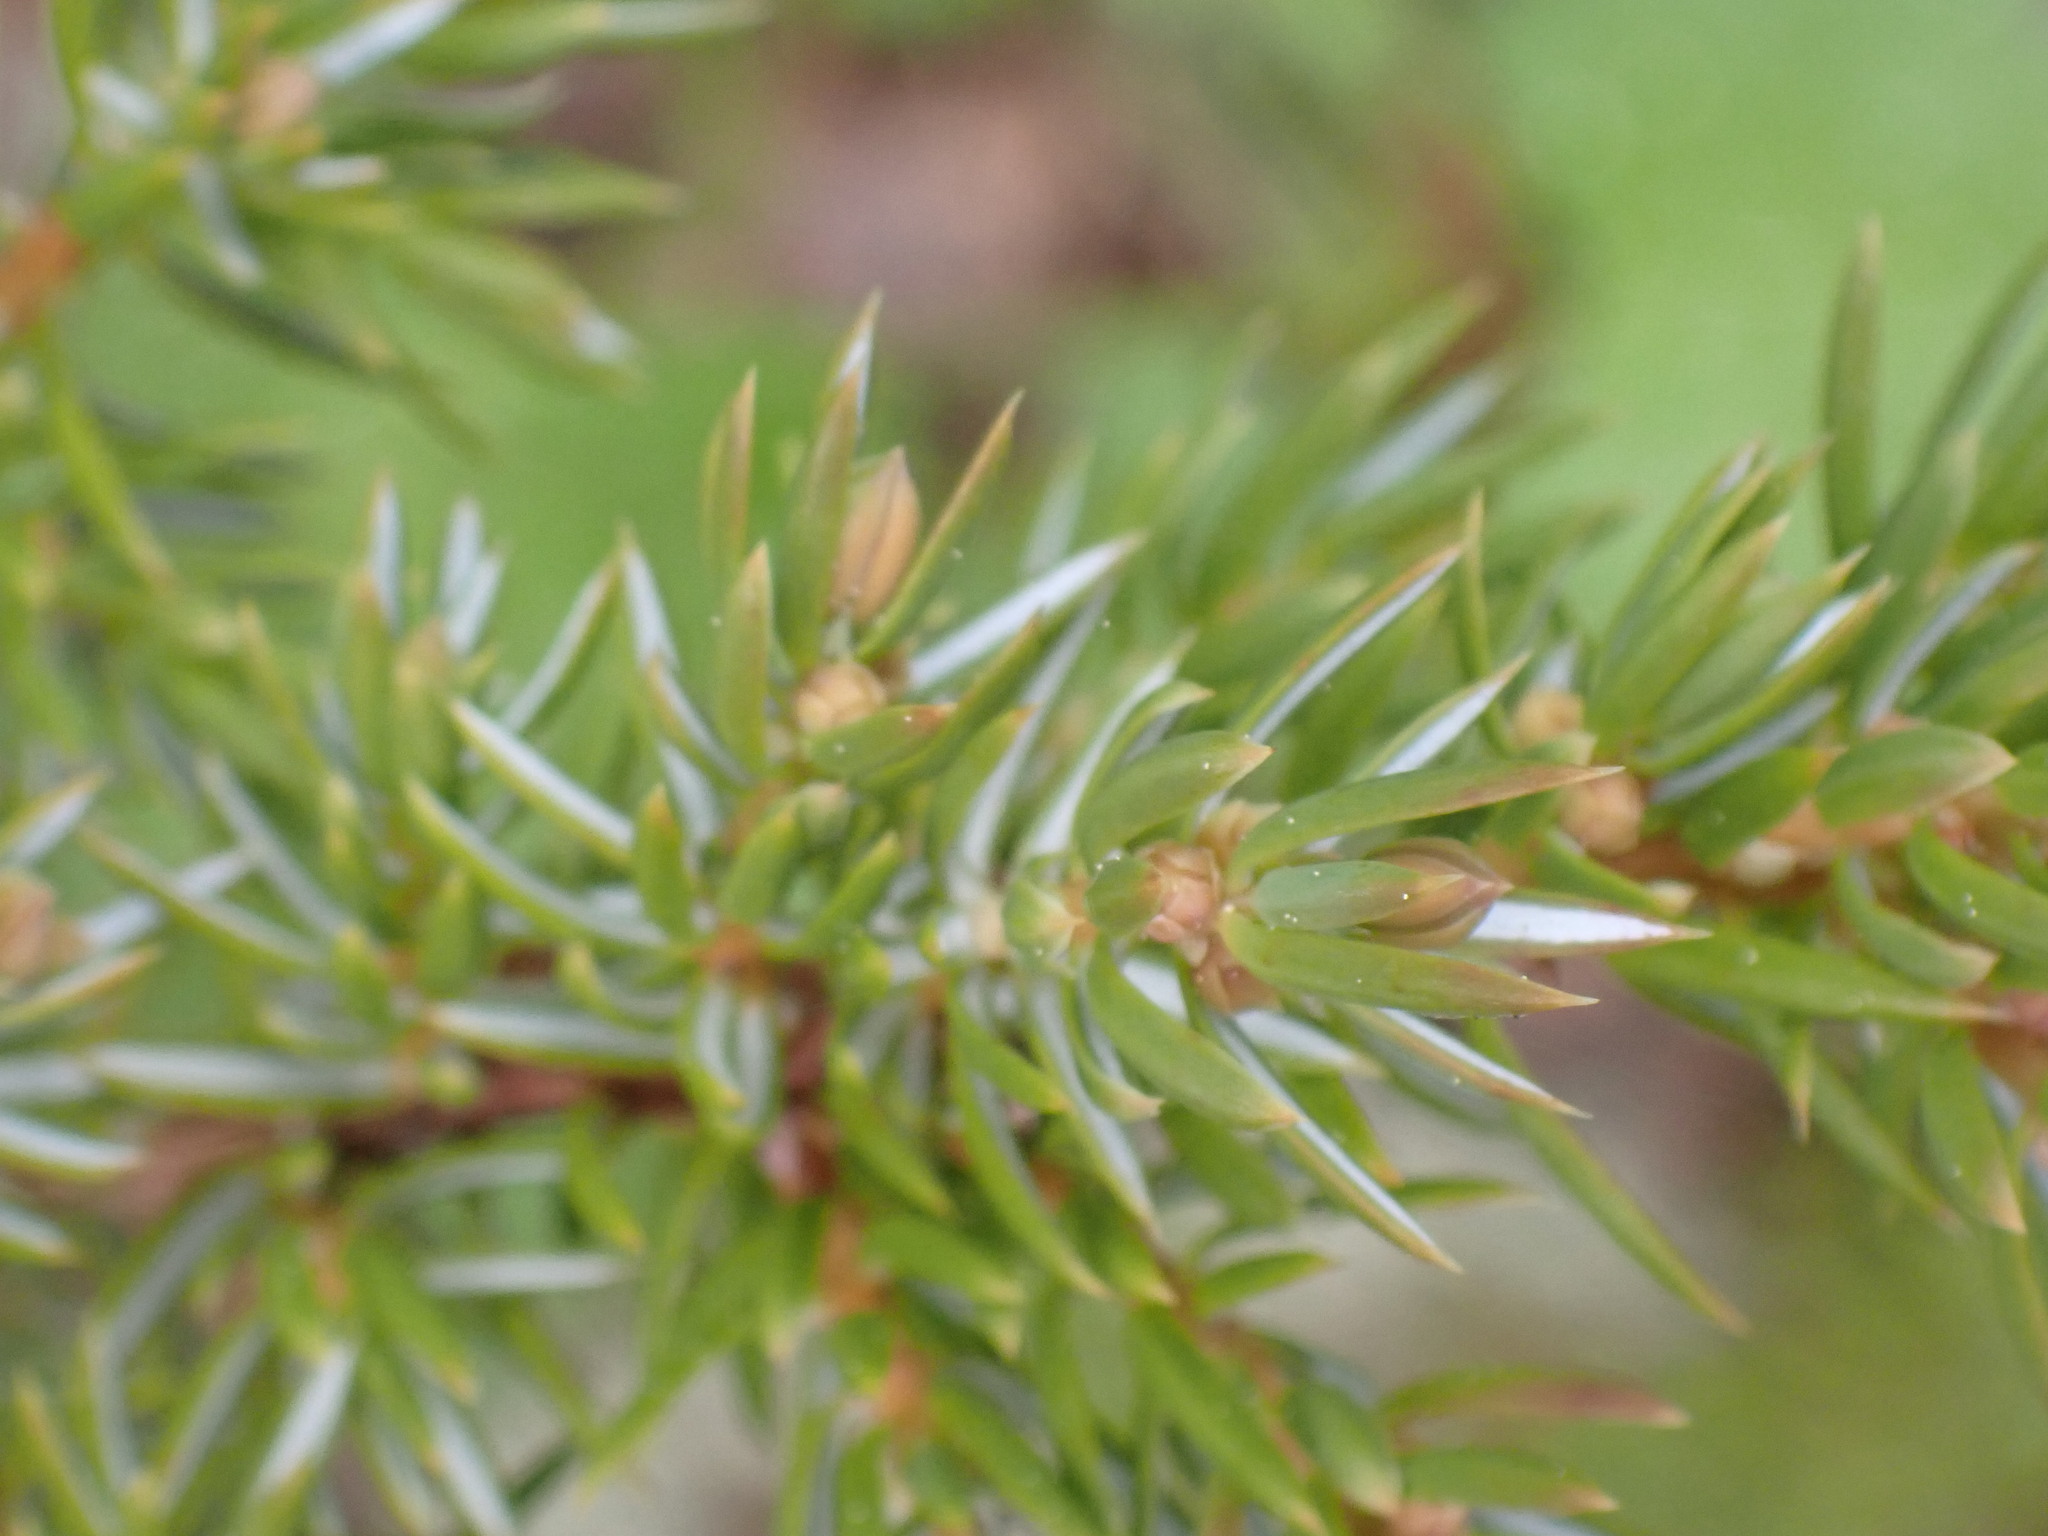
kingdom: Plantae
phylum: Tracheophyta
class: Pinopsida
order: Pinales
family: Cupressaceae
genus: Juniperus
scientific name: Juniperus communis
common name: Common juniper
